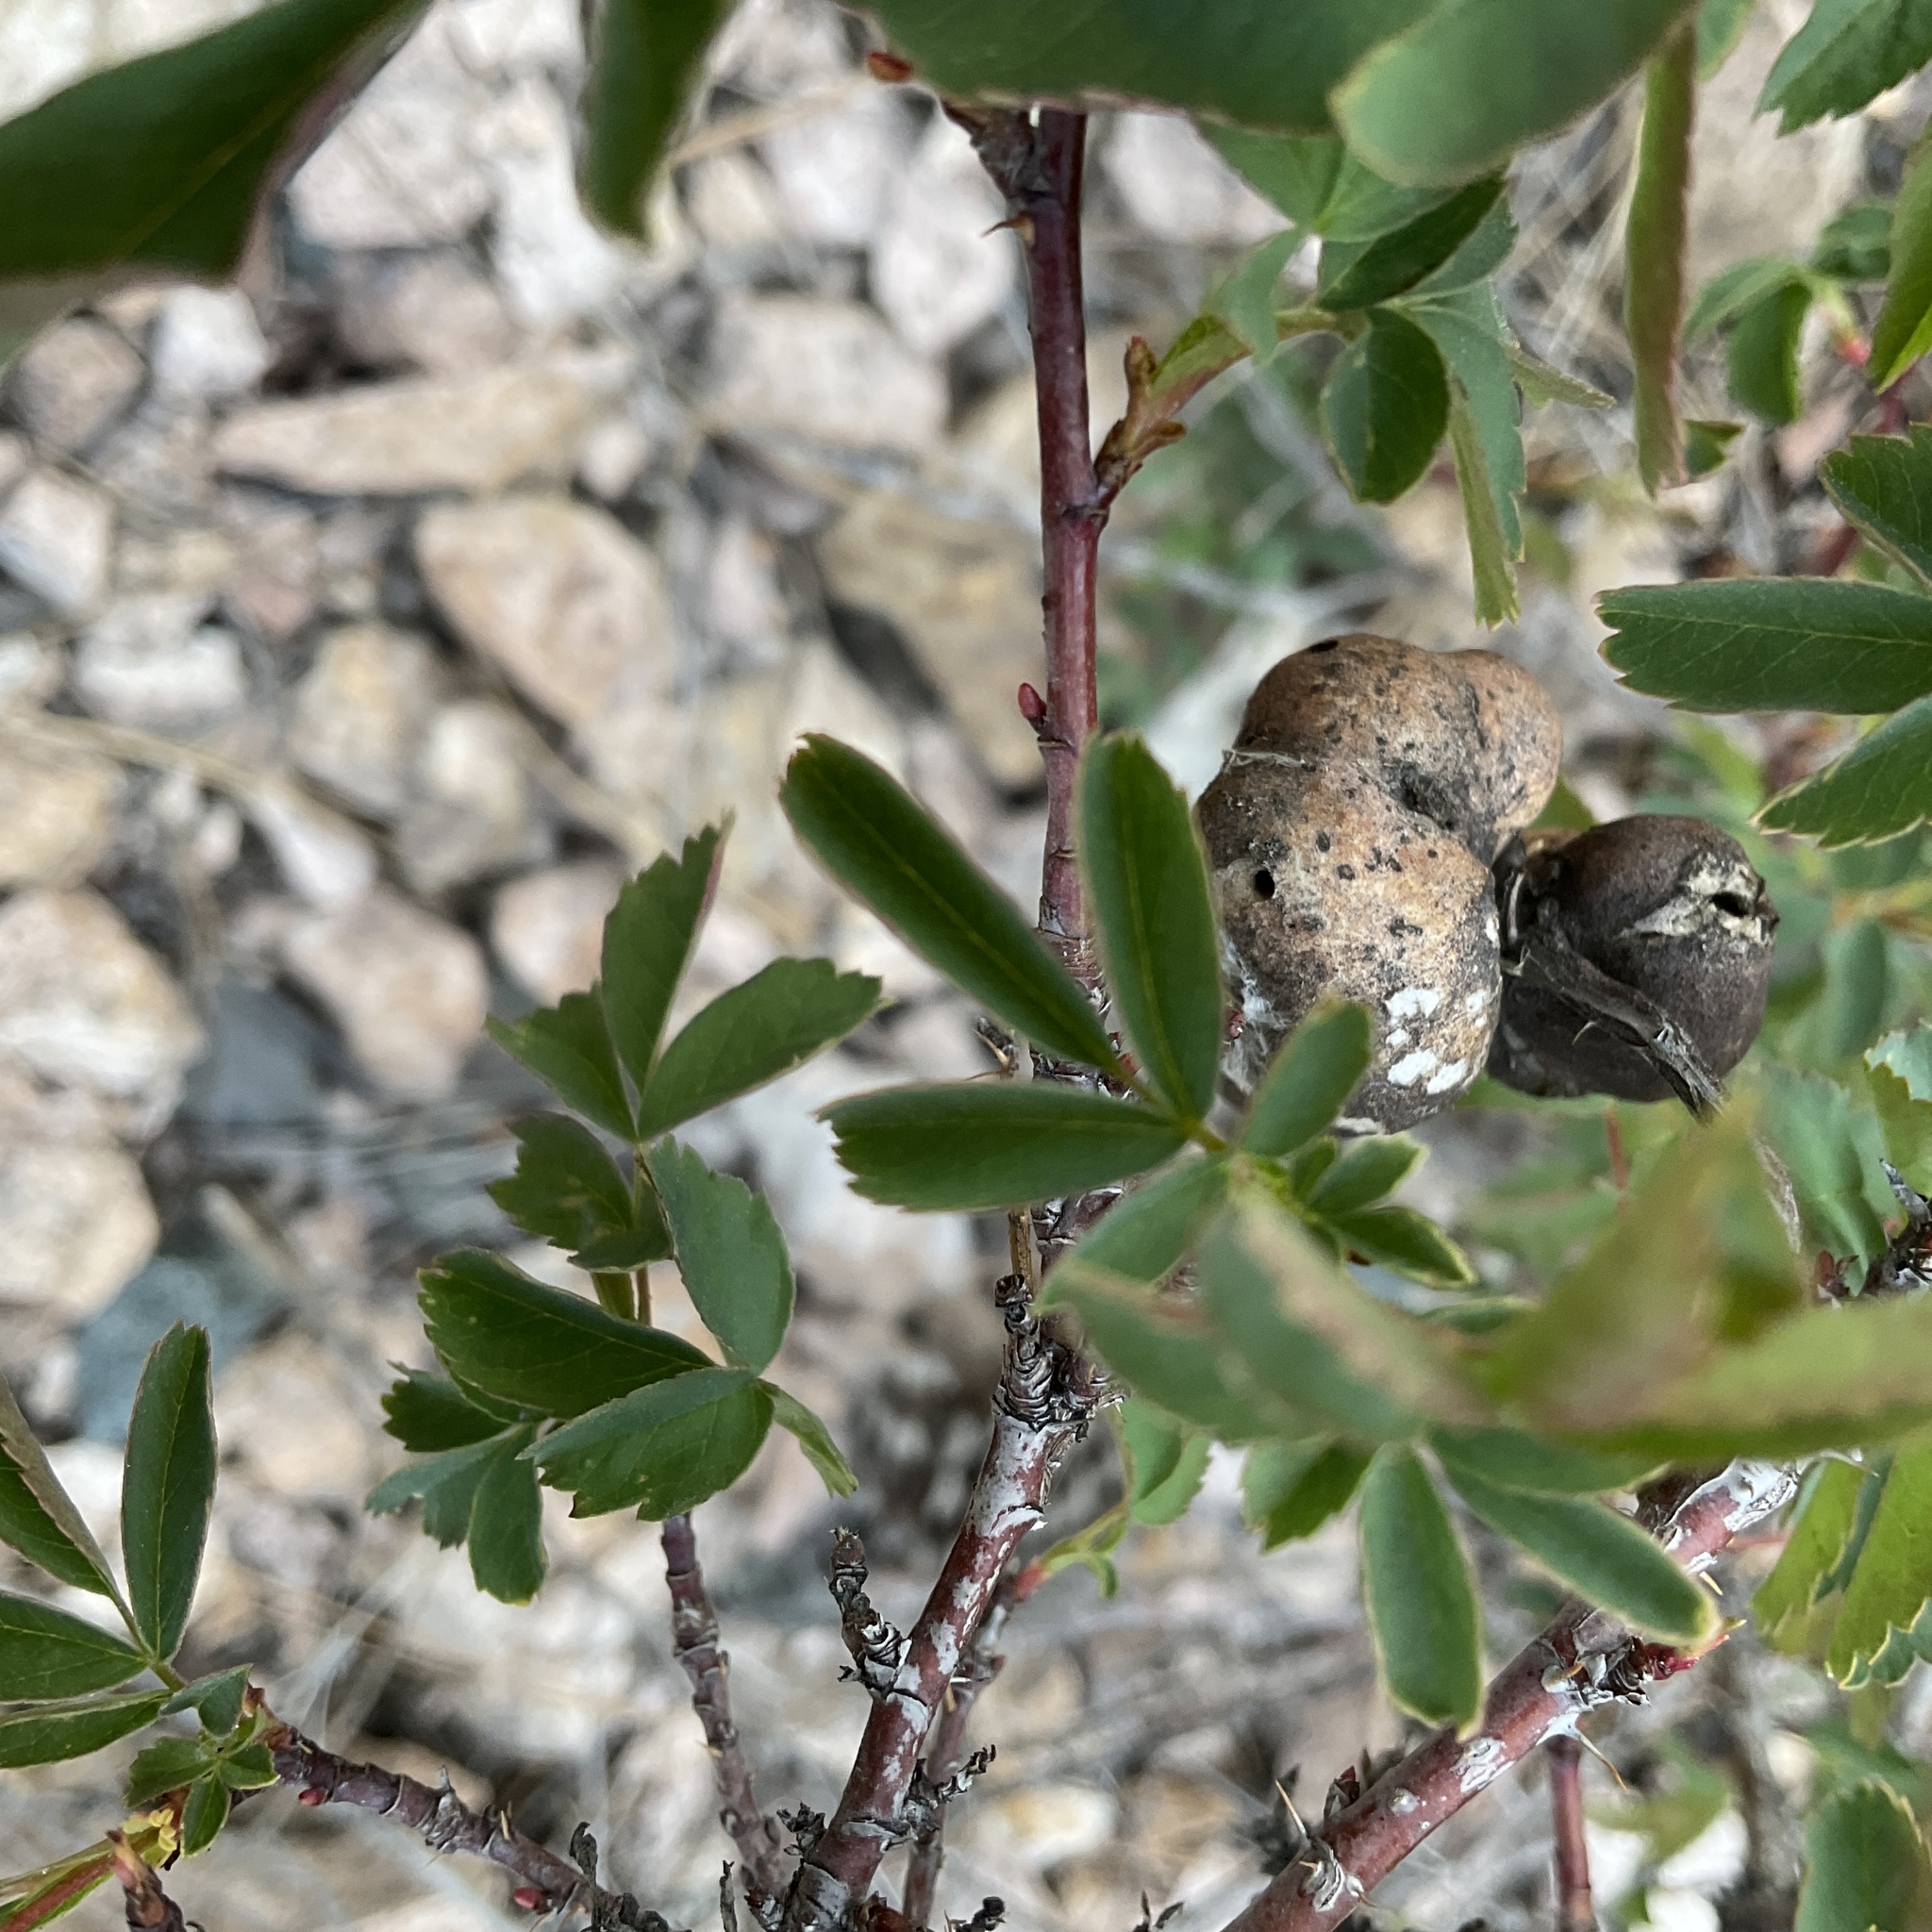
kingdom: Animalia
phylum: Arthropoda
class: Insecta
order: Hymenoptera
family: Cynipidae
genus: Diplolepis
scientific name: Diplolepis variabilis
